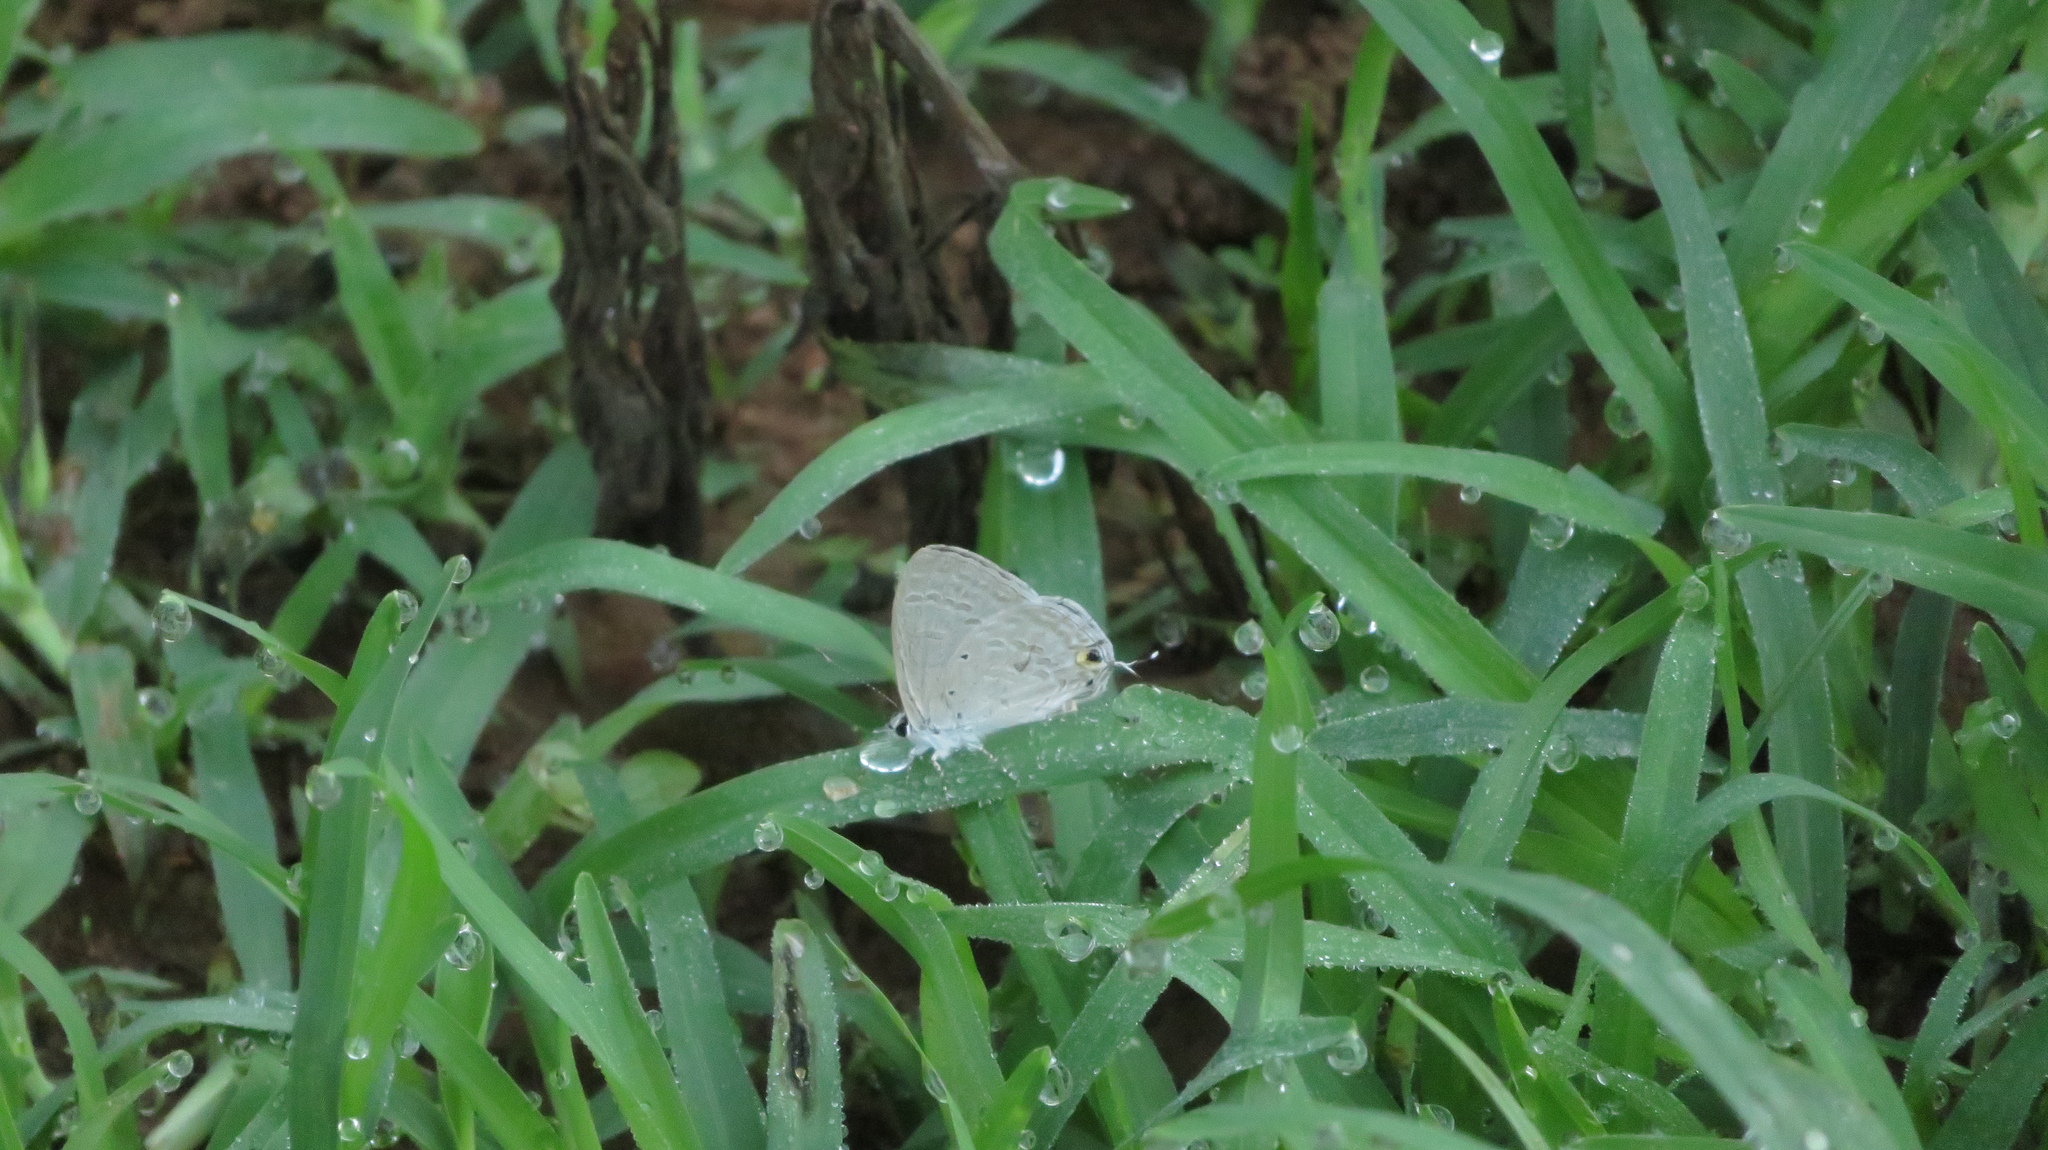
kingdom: Animalia
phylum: Arthropoda
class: Insecta
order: Lepidoptera
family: Lycaenidae
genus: Catochrysops
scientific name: Catochrysops strabo
